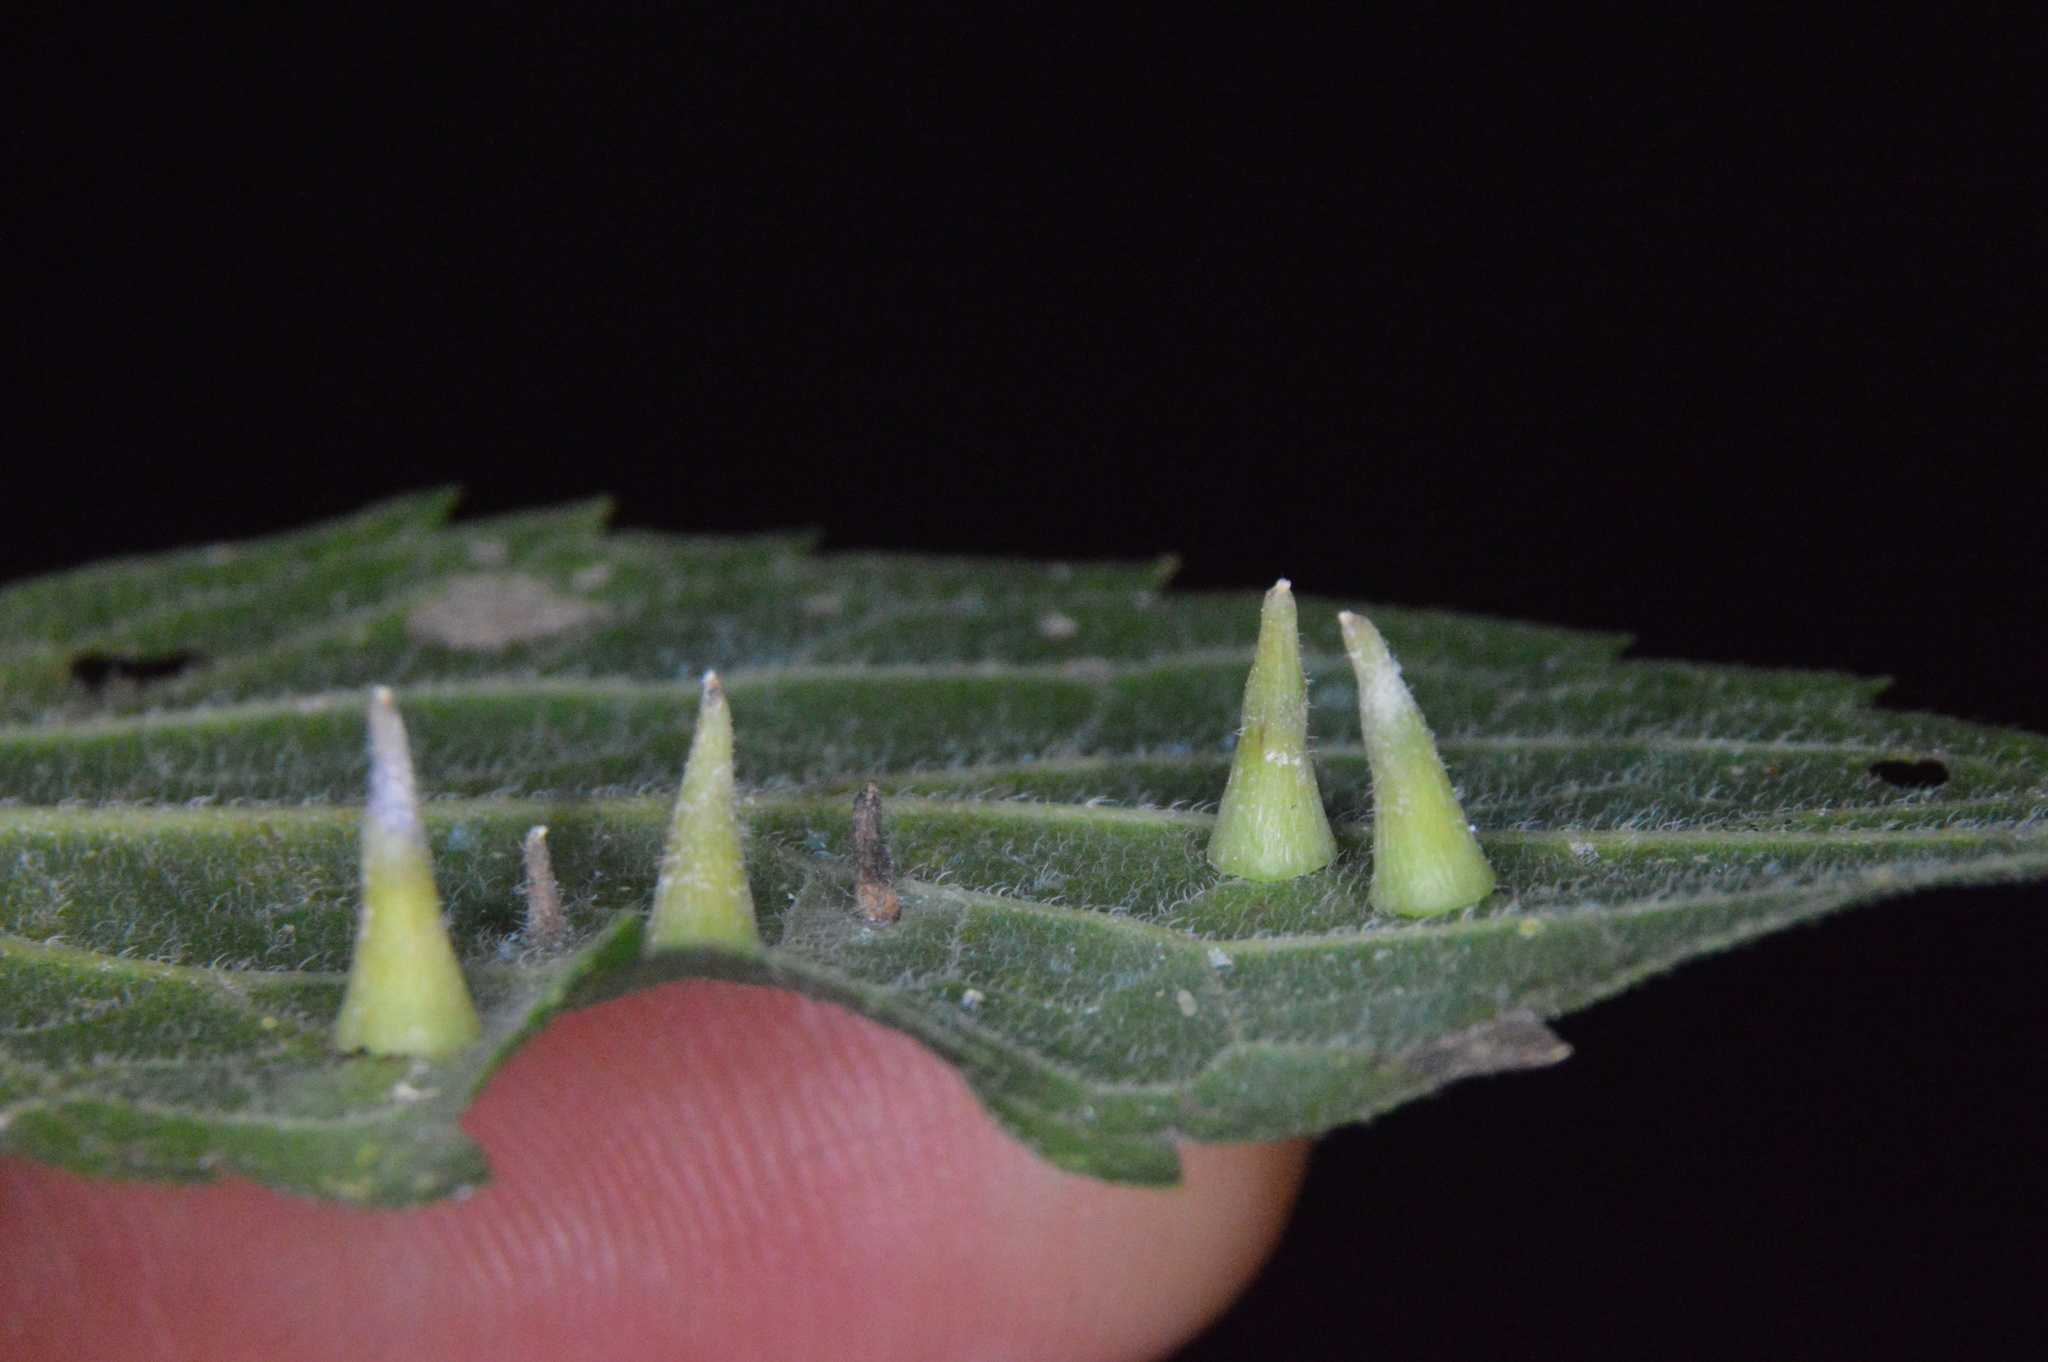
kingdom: Animalia
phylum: Arthropoda
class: Insecta
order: Diptera
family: Cecidomyiidae
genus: Celticecis
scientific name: Celticecis subulata
